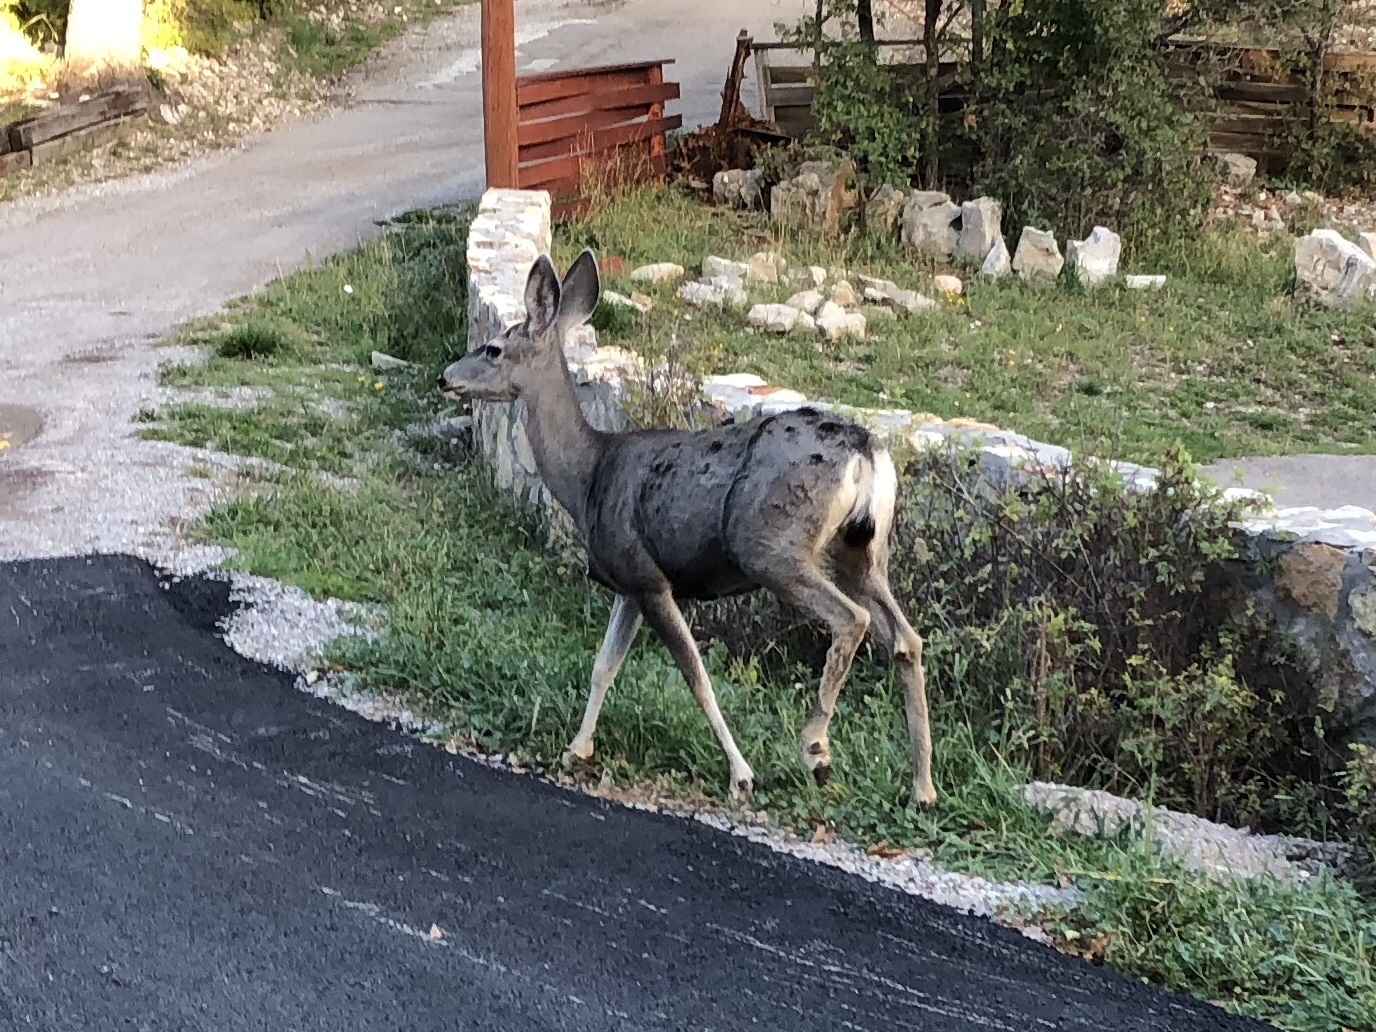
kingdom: Animalia
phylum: Chordata
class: Mammalia
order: Artiodactyla
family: Cervidae
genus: Odocoileus
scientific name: Odocoileus hemionus
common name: Mule deer
